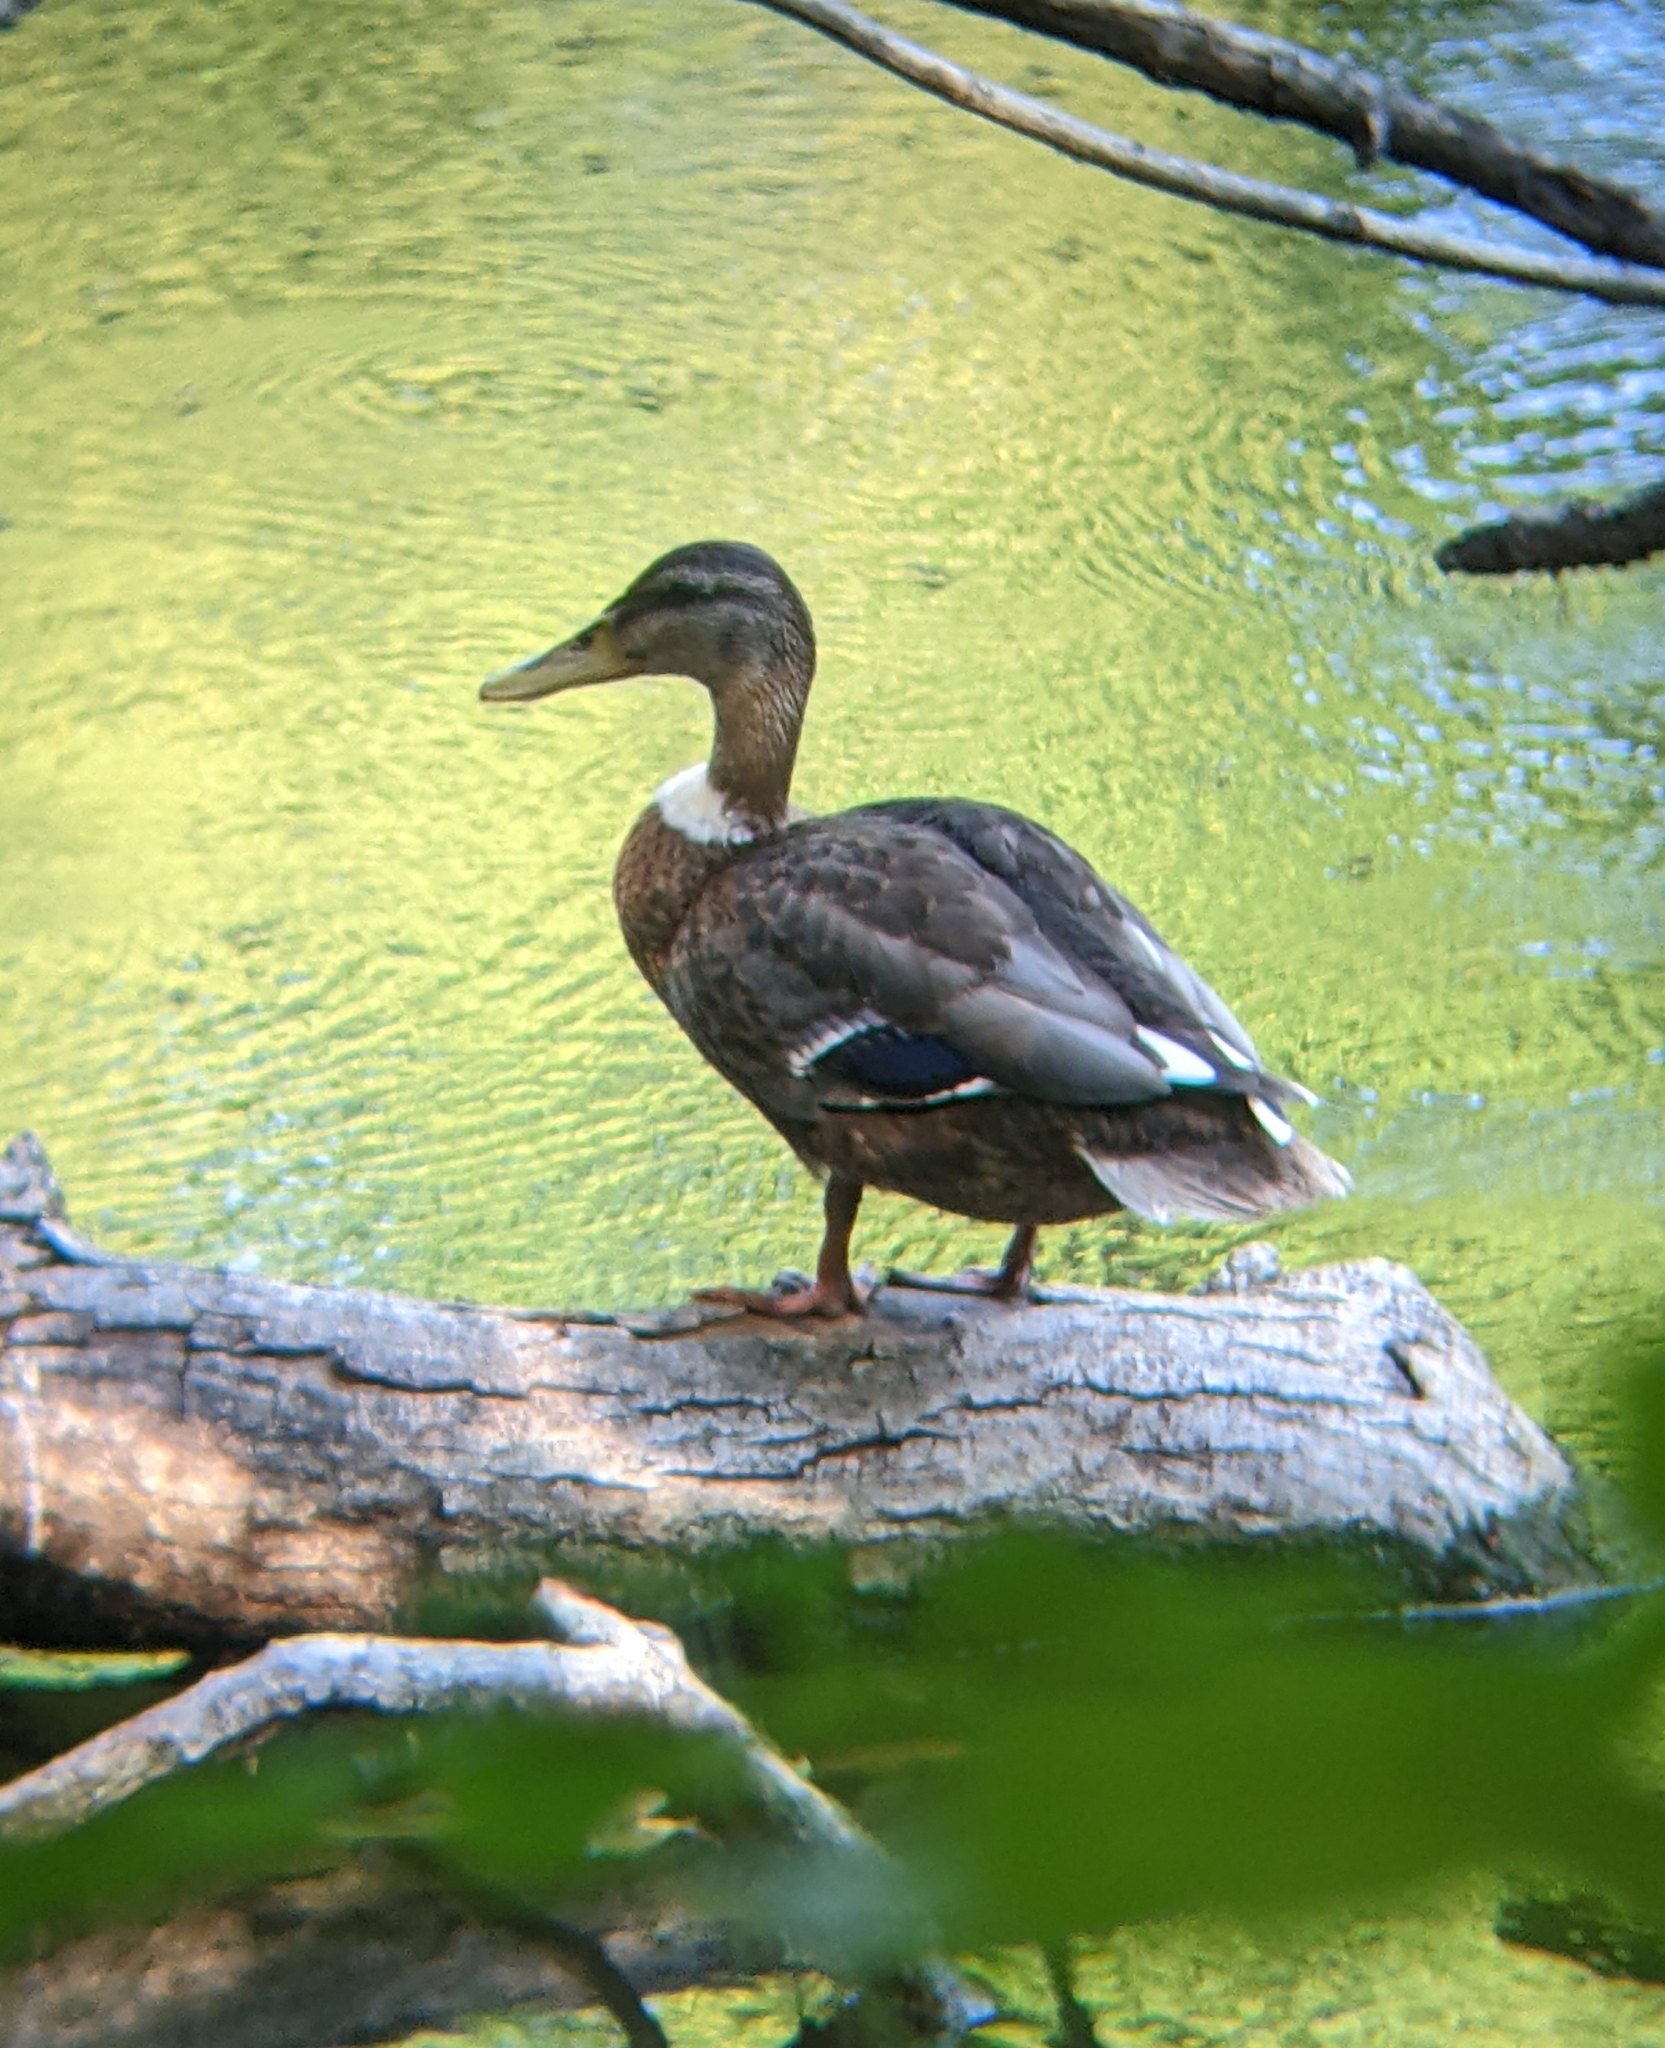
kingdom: Animalia
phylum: Chordata
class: Aves
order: Anseriformes
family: Anatidae
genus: Anas
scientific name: Anas platyrhynchos
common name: Mallard
